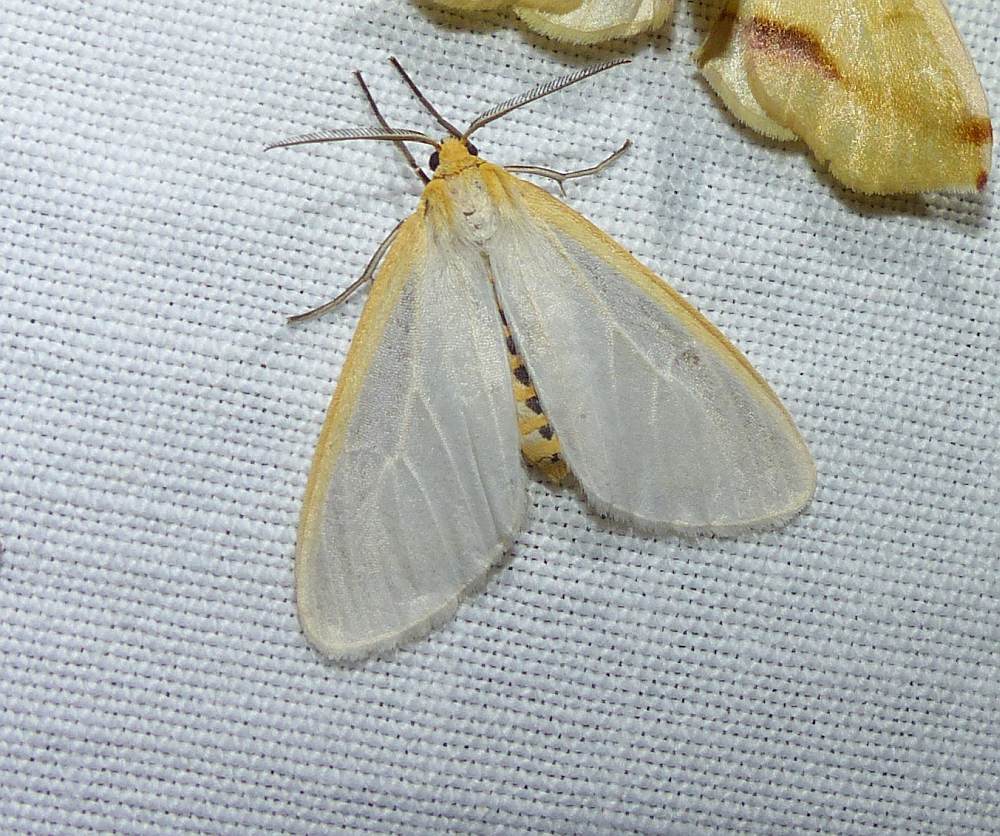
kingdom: Animalia
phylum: Arthropoda
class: Insecta
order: Lepidoptera
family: Erebidae
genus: Cycnia
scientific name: Cycnia tenera
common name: Delicate cycnia moth
